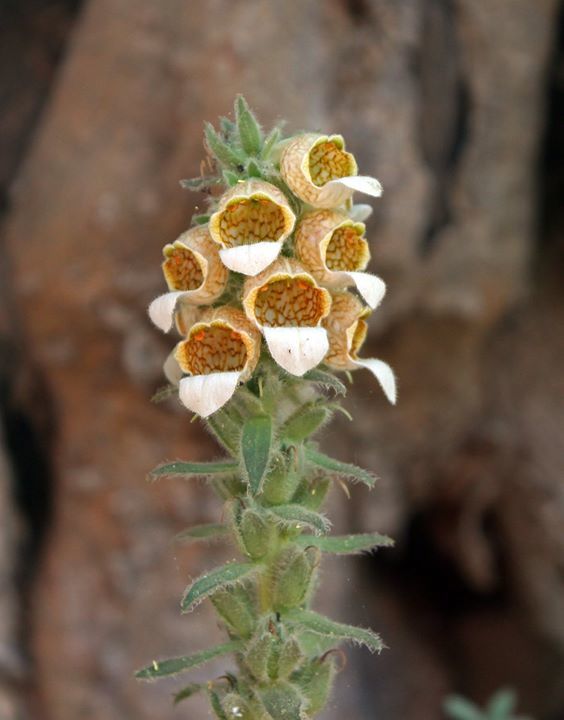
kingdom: Plantae
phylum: Tracheophyta
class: Magnoliopsida
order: Lamiales
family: Plantaginaceae
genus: Digitalis
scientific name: Digitalis lanata
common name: Grecian foxglove
